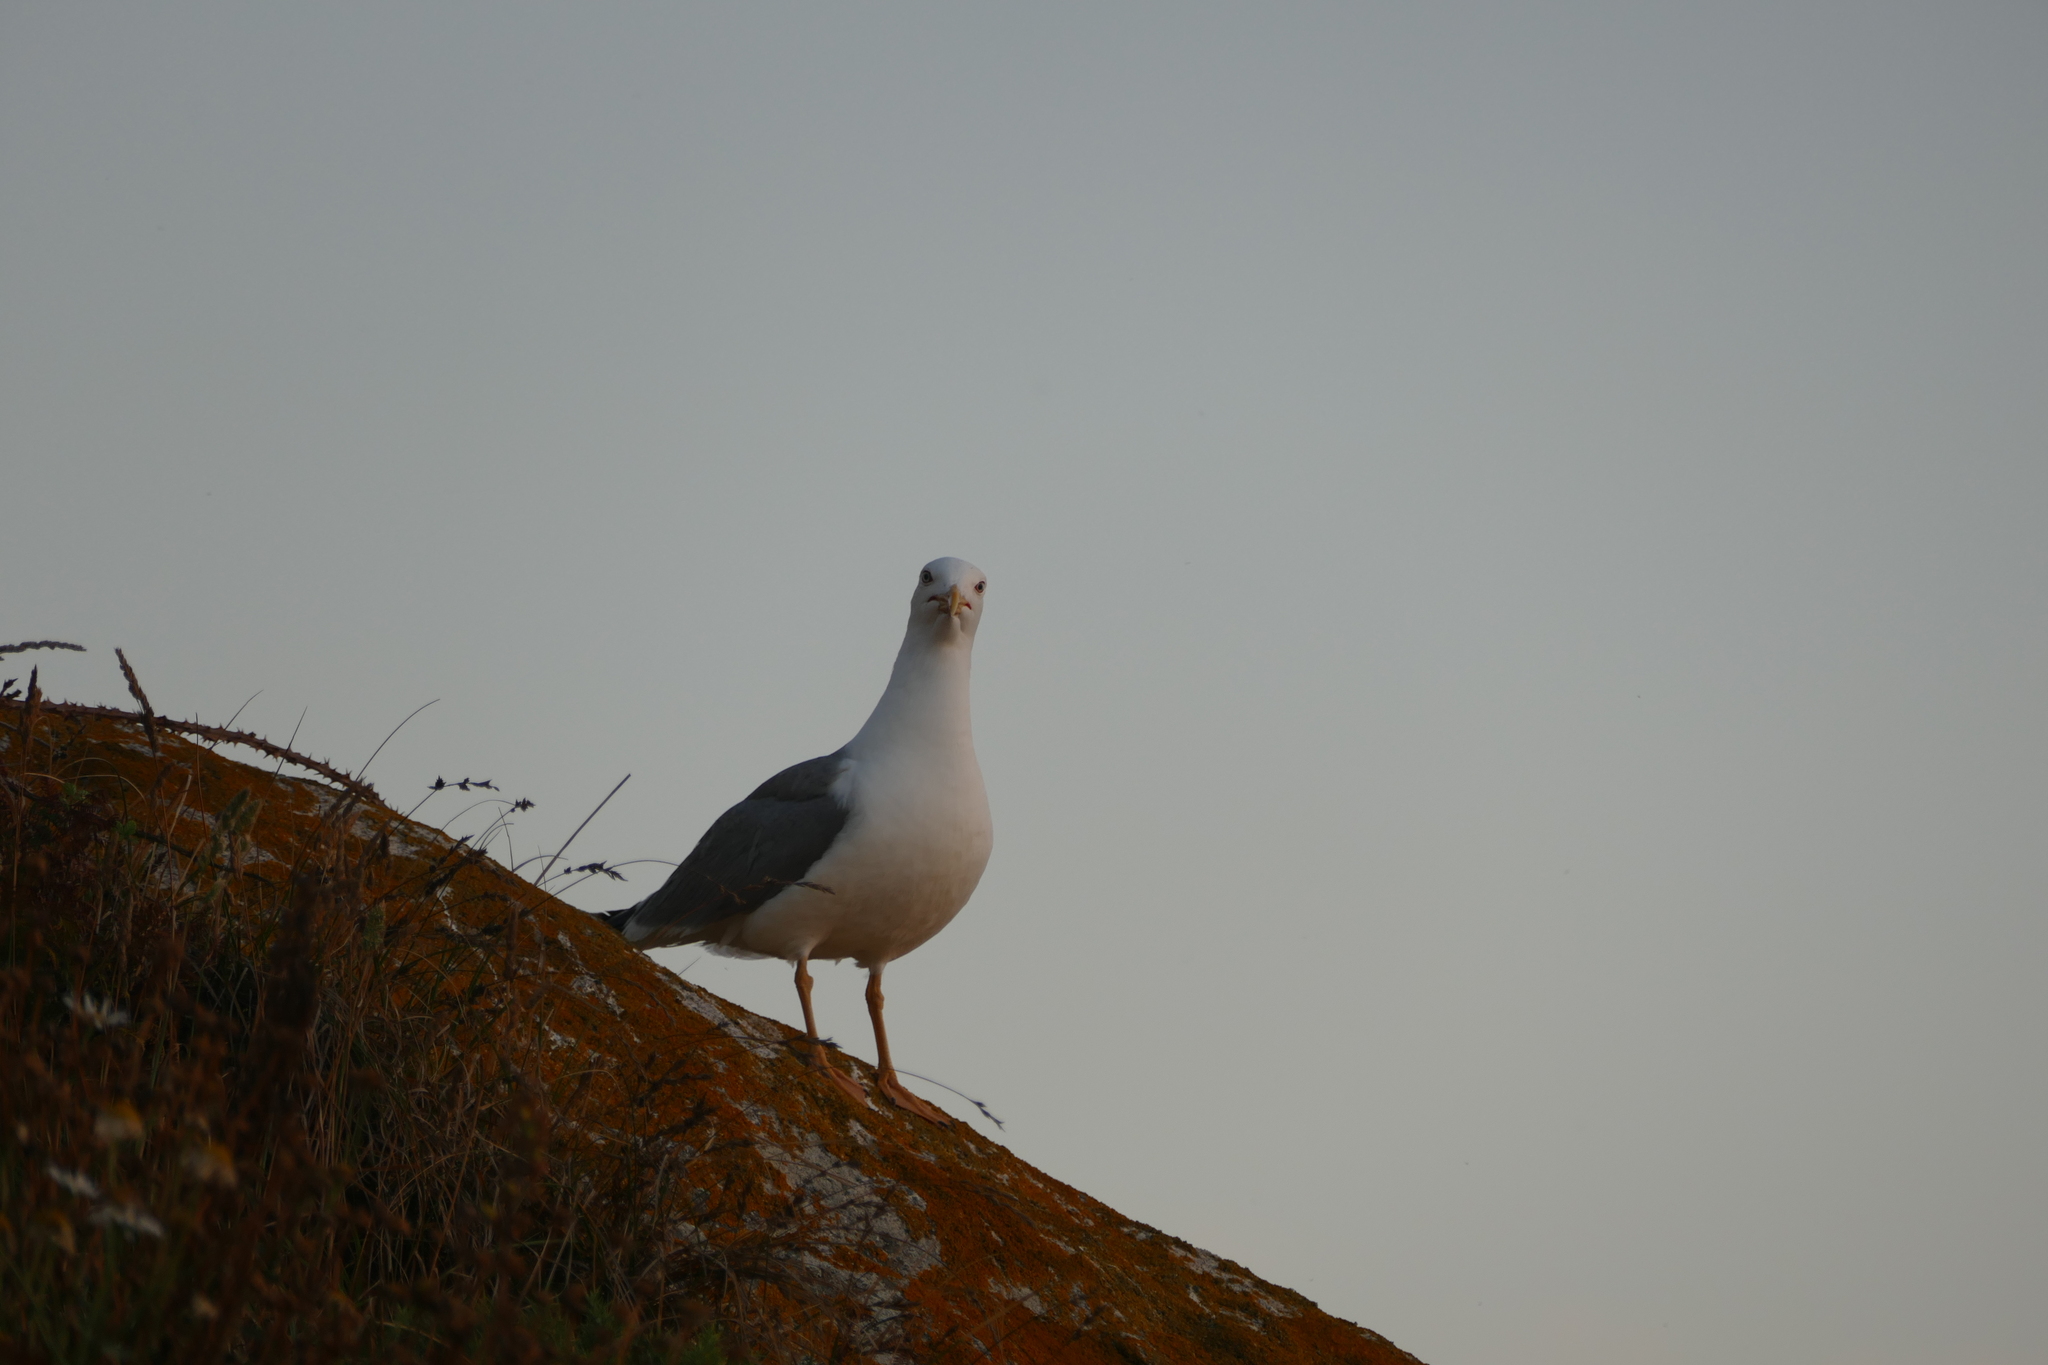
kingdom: Animalia
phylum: Chordata
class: Aves
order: Charadriiformes
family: Laridae
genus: Larus
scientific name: Larus michahellis
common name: Yellow-legged gull
